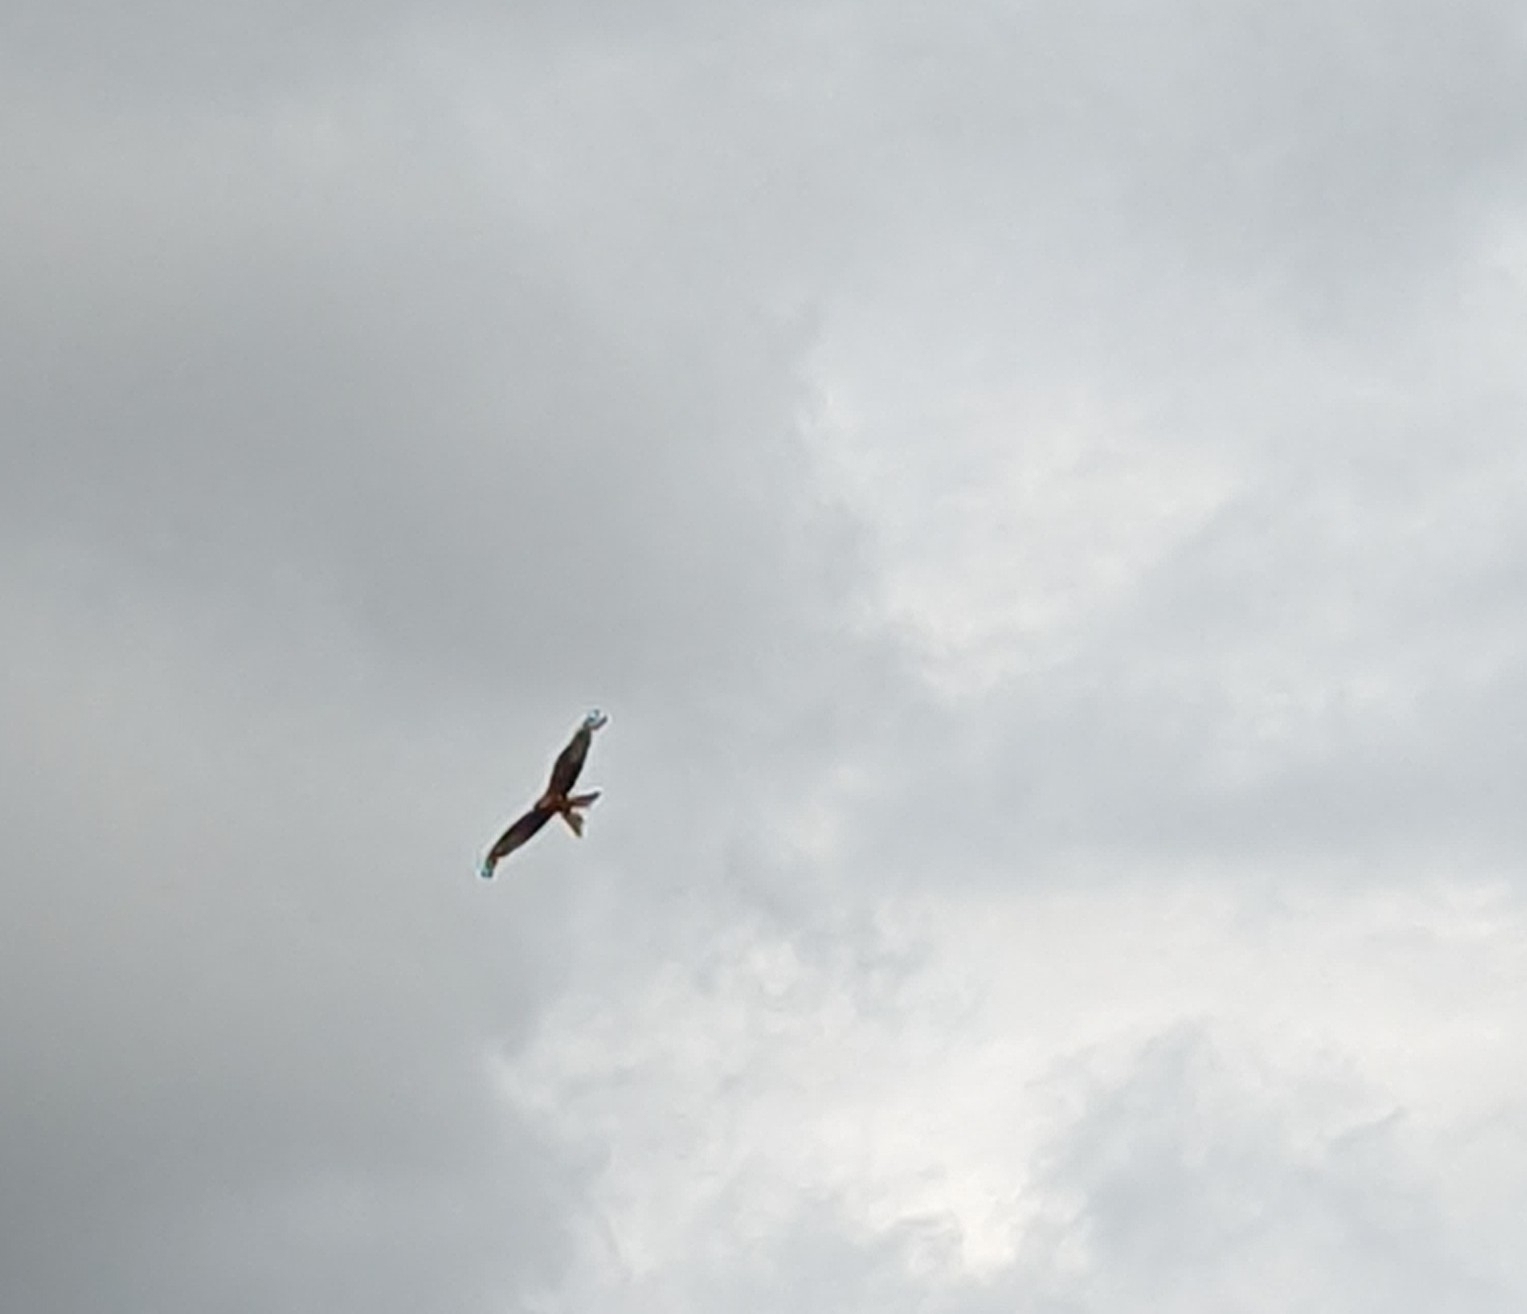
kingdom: Animalia
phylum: Chordata
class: Aves
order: Accipitriformes
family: Accipitridae
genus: Milvus
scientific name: Milvus milvus
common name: Red kite
